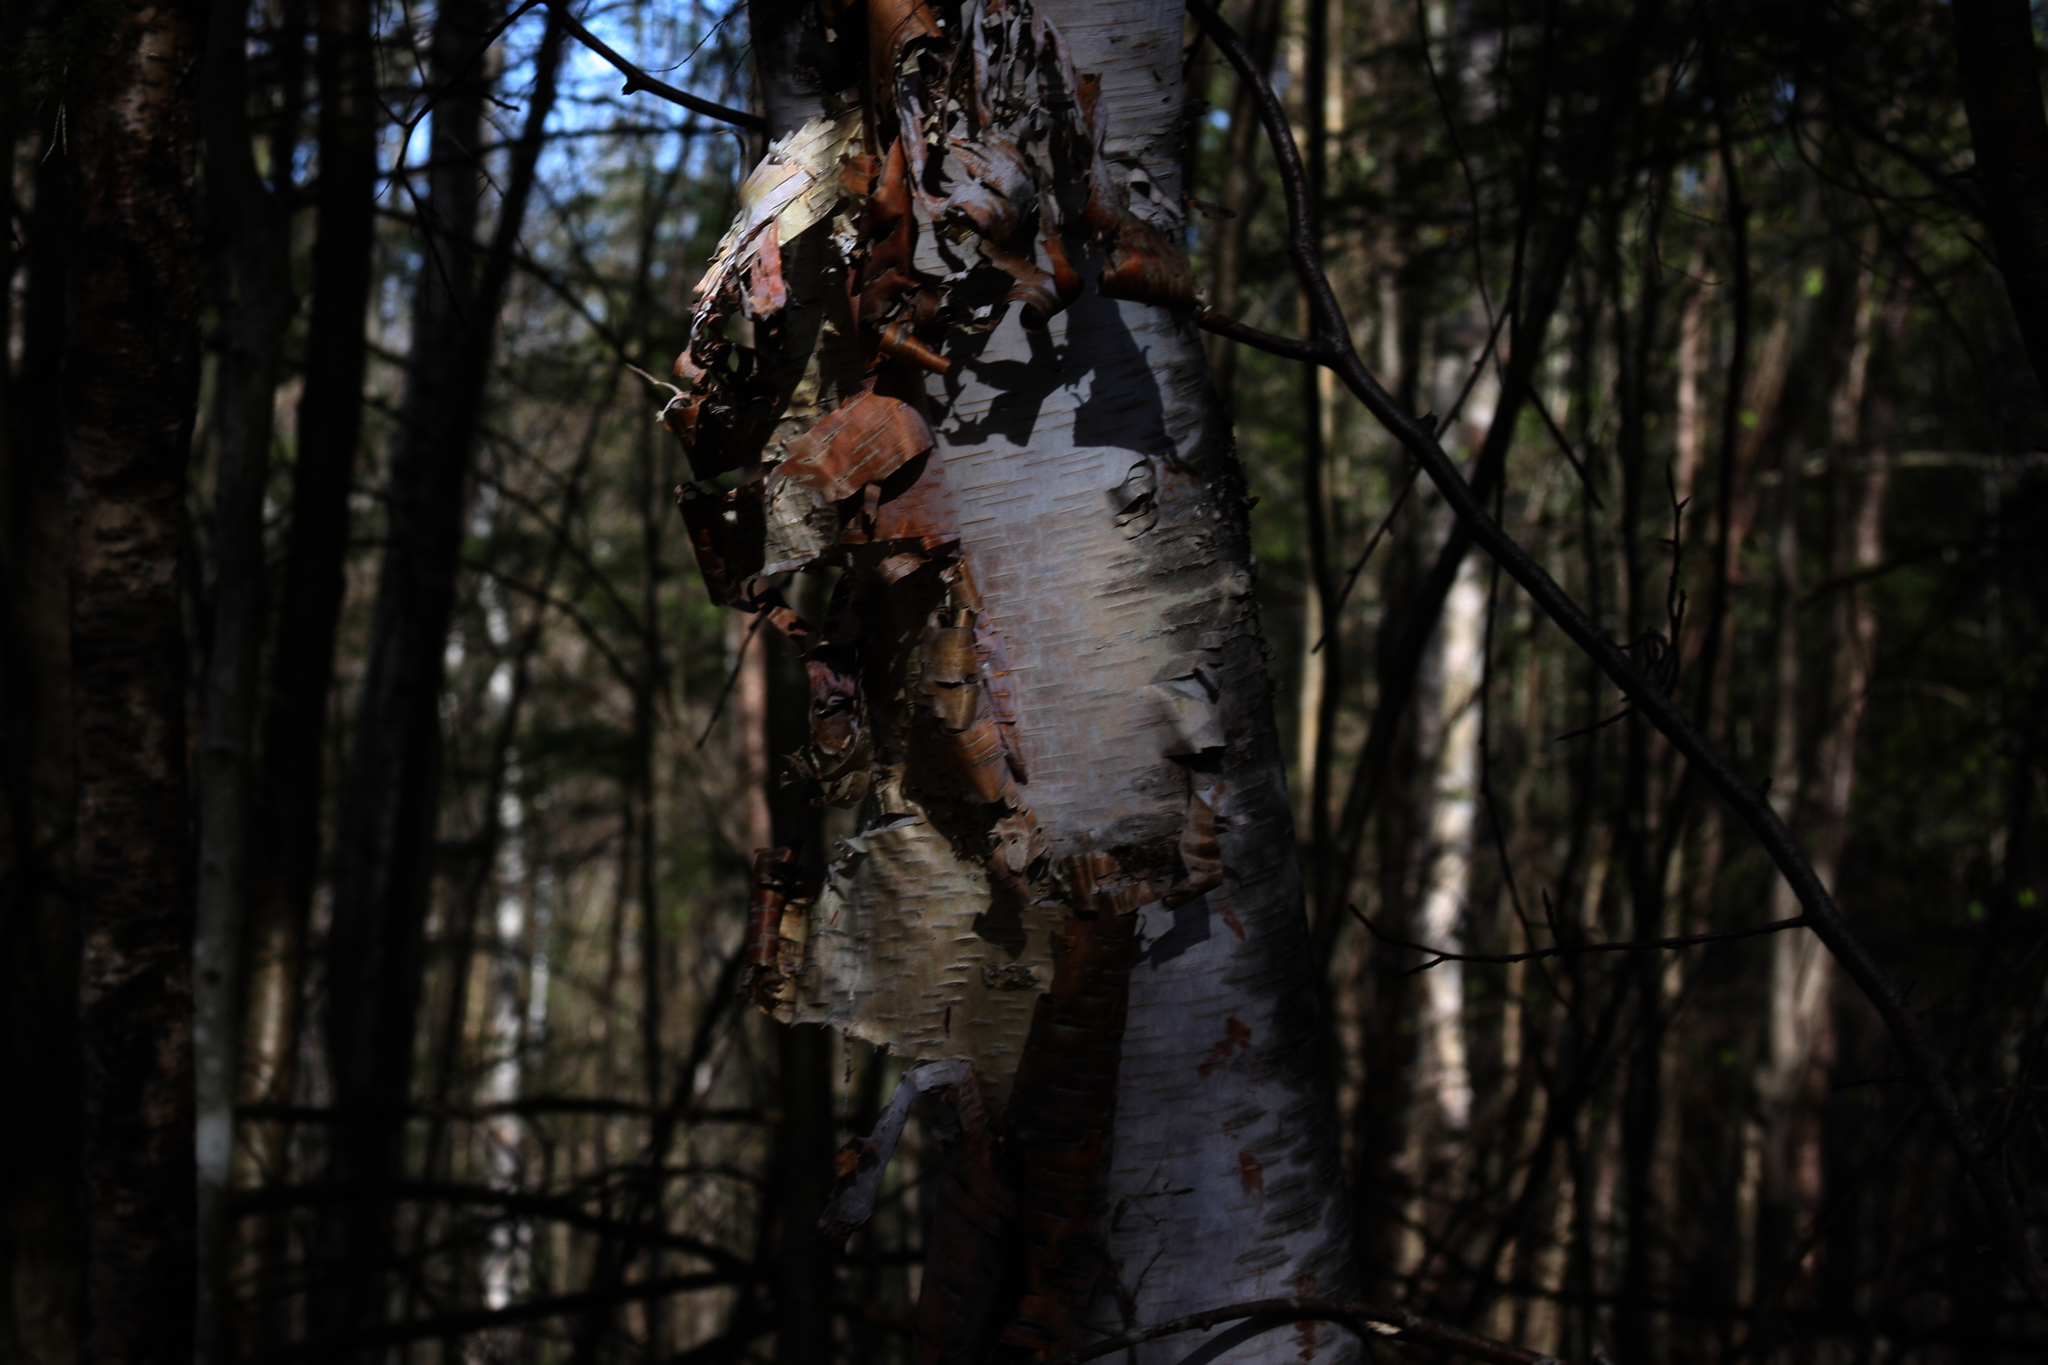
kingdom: Plantae
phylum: Tracheophyta
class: Magnoliopsida
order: Fagales
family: Betulaceae
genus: Betula
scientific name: Betula papyrifera
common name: Paper birch
